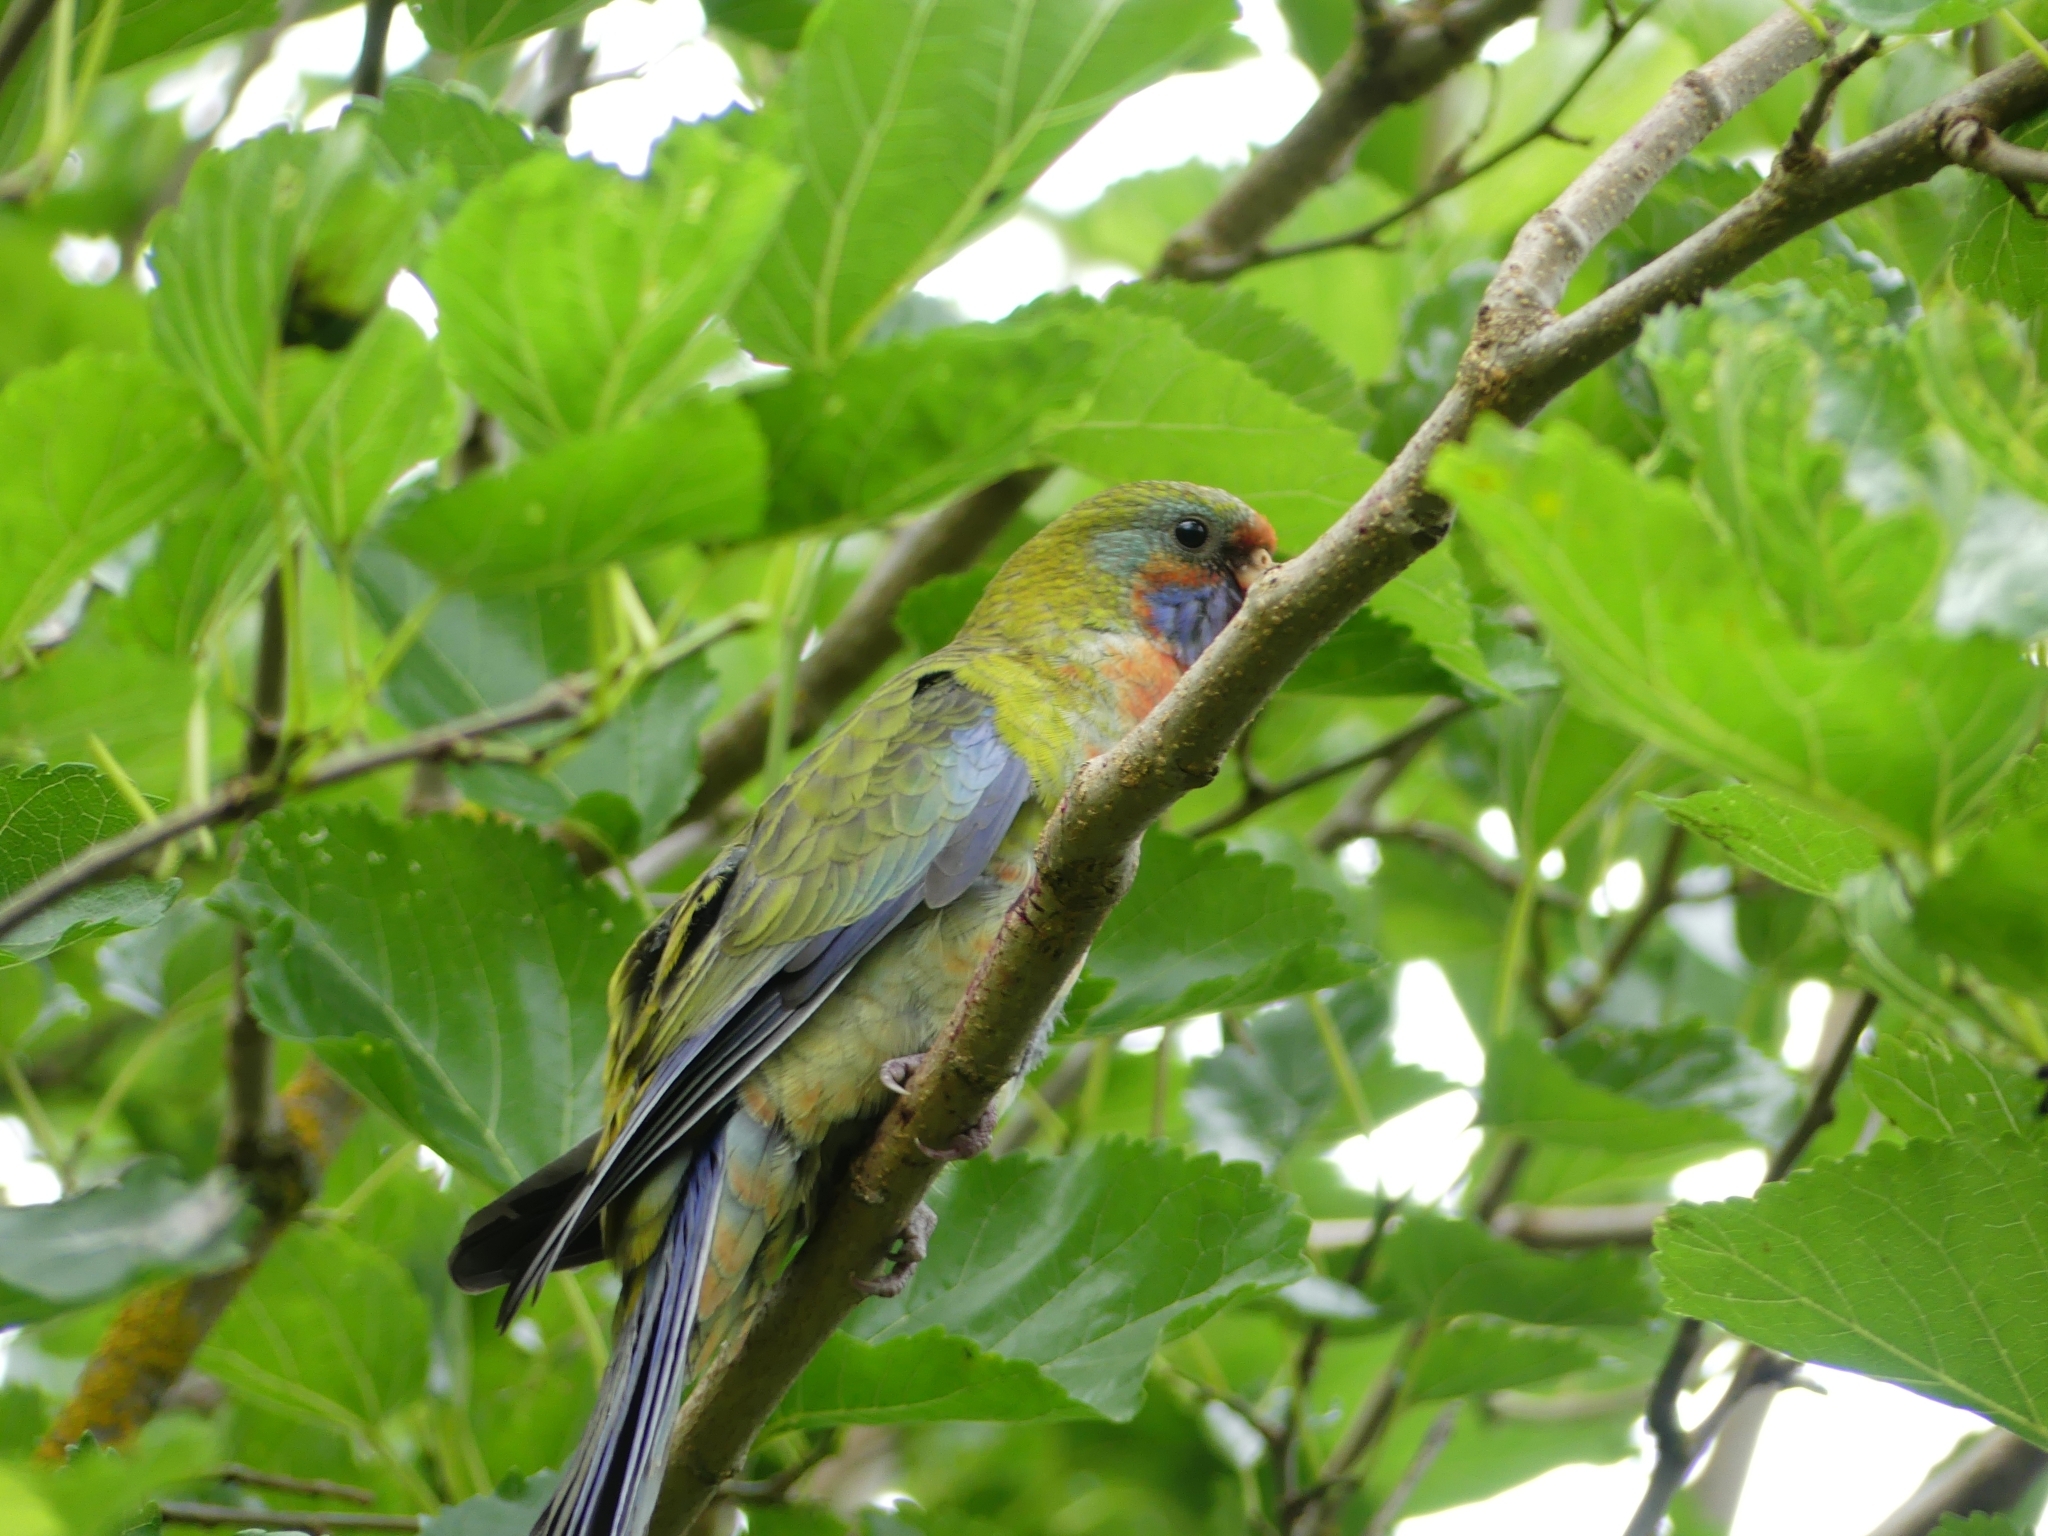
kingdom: Animalia
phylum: Chordata
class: Aves
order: Psittaciformes
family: Psittacidae
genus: Platycercus
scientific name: Platycercus elegans
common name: Crimson rosella
